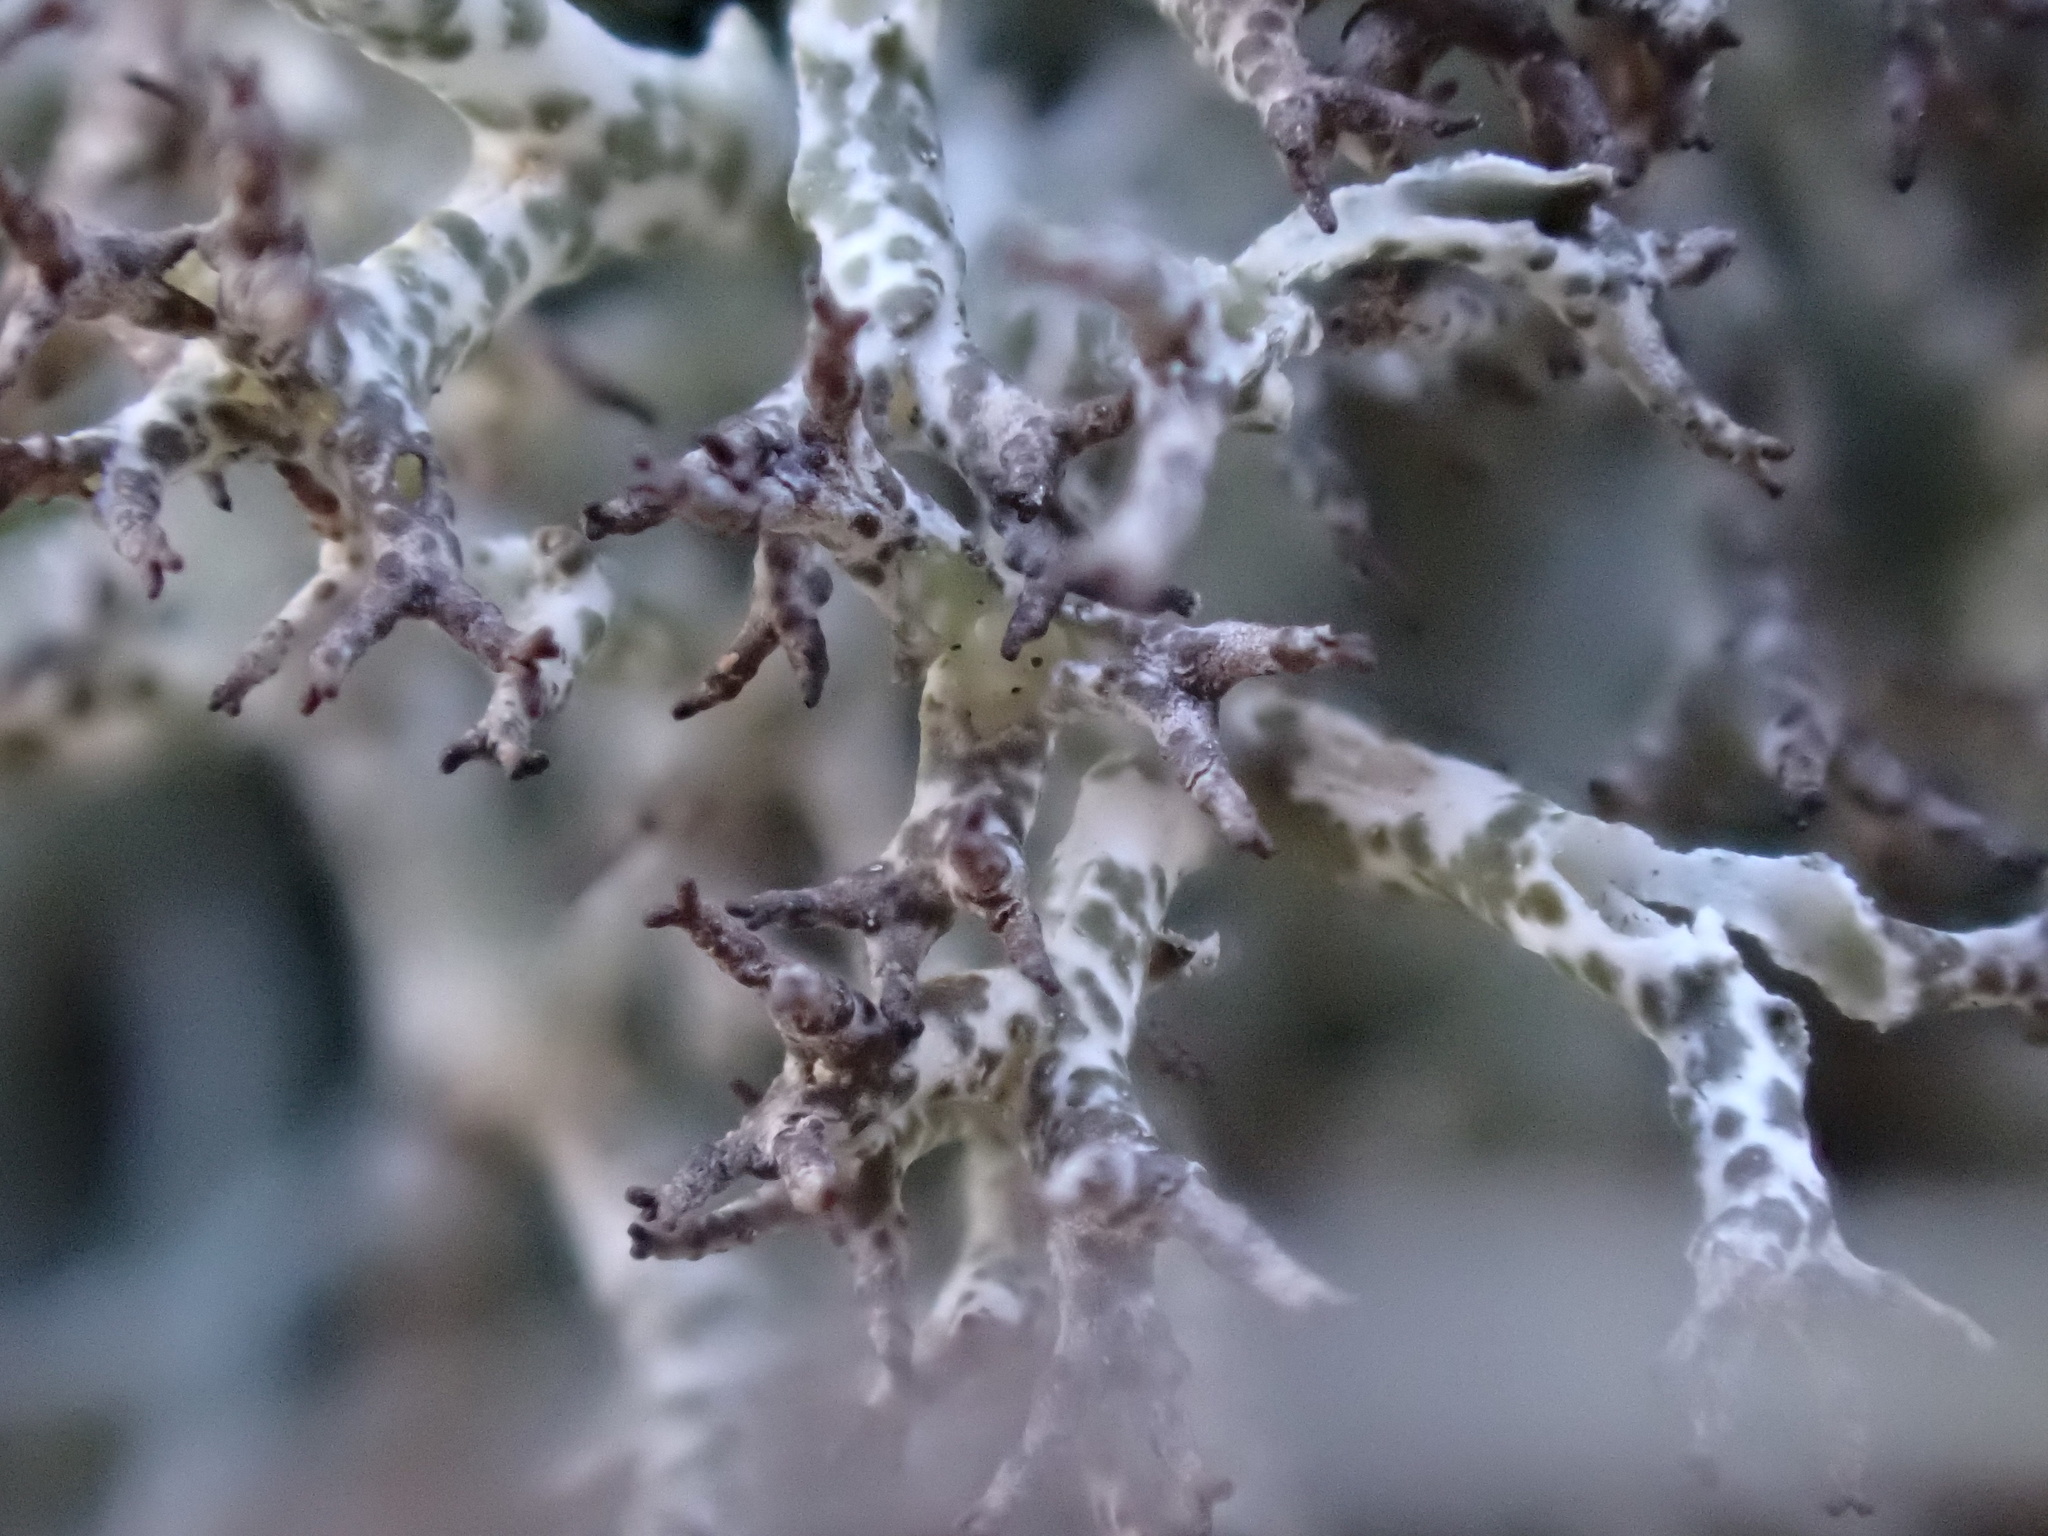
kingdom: Fungi
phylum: Ascomycota
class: Lecanoromycetes
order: Lecanorales
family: Cladoniaceae
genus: Cladonia
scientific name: Cladonia rangiformis
